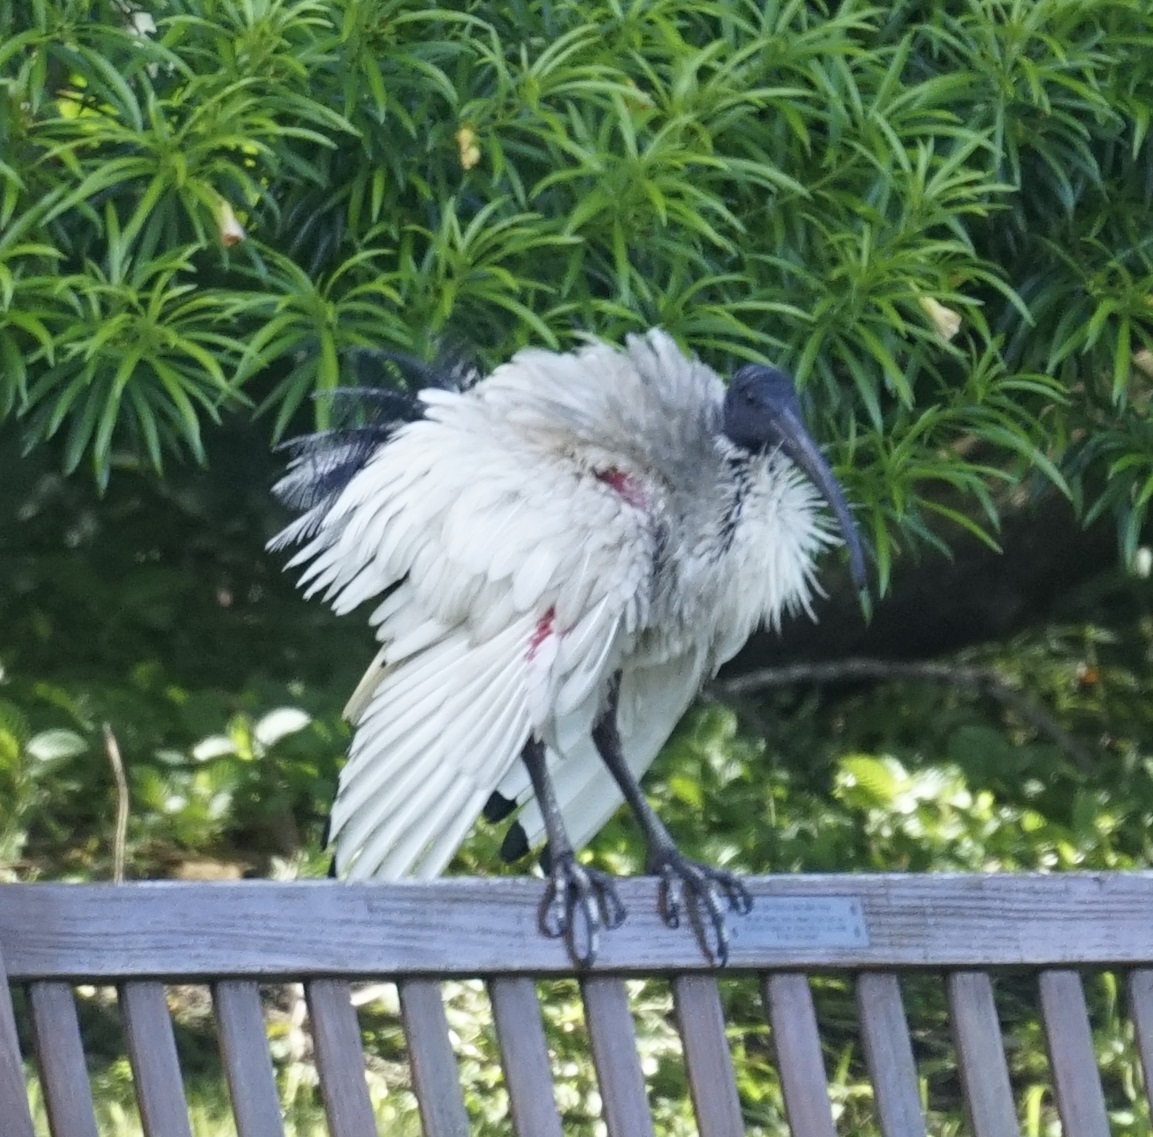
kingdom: Animalia
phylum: Chordata
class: Aves
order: Pelecaniformes
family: Threskiornithidae
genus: Threskiornis
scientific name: Threskiornis molucca
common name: Australian white ibis
